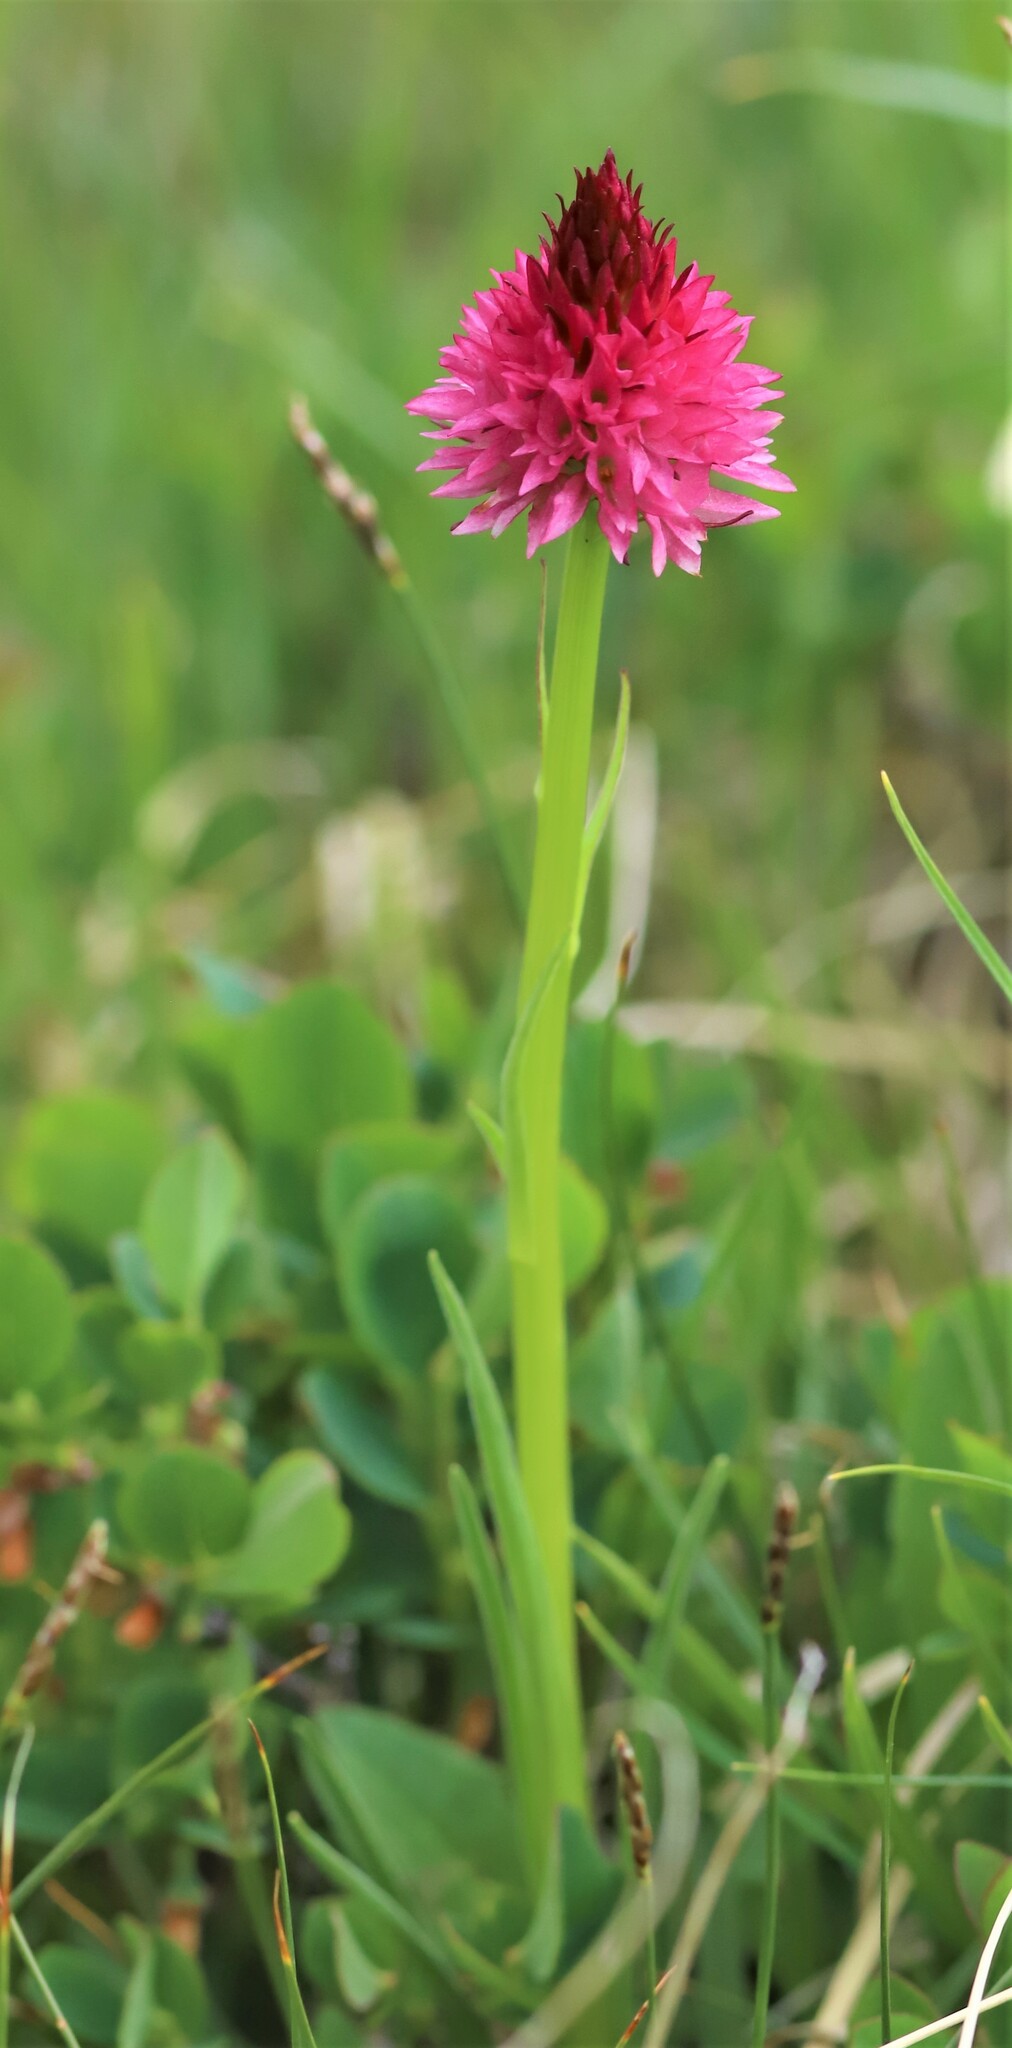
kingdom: Plantae
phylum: Tracheophyta
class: Liliopsida
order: Asparagales
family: Orchidaceae
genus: Gymnadenia
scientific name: Gymnadenia corneliana
